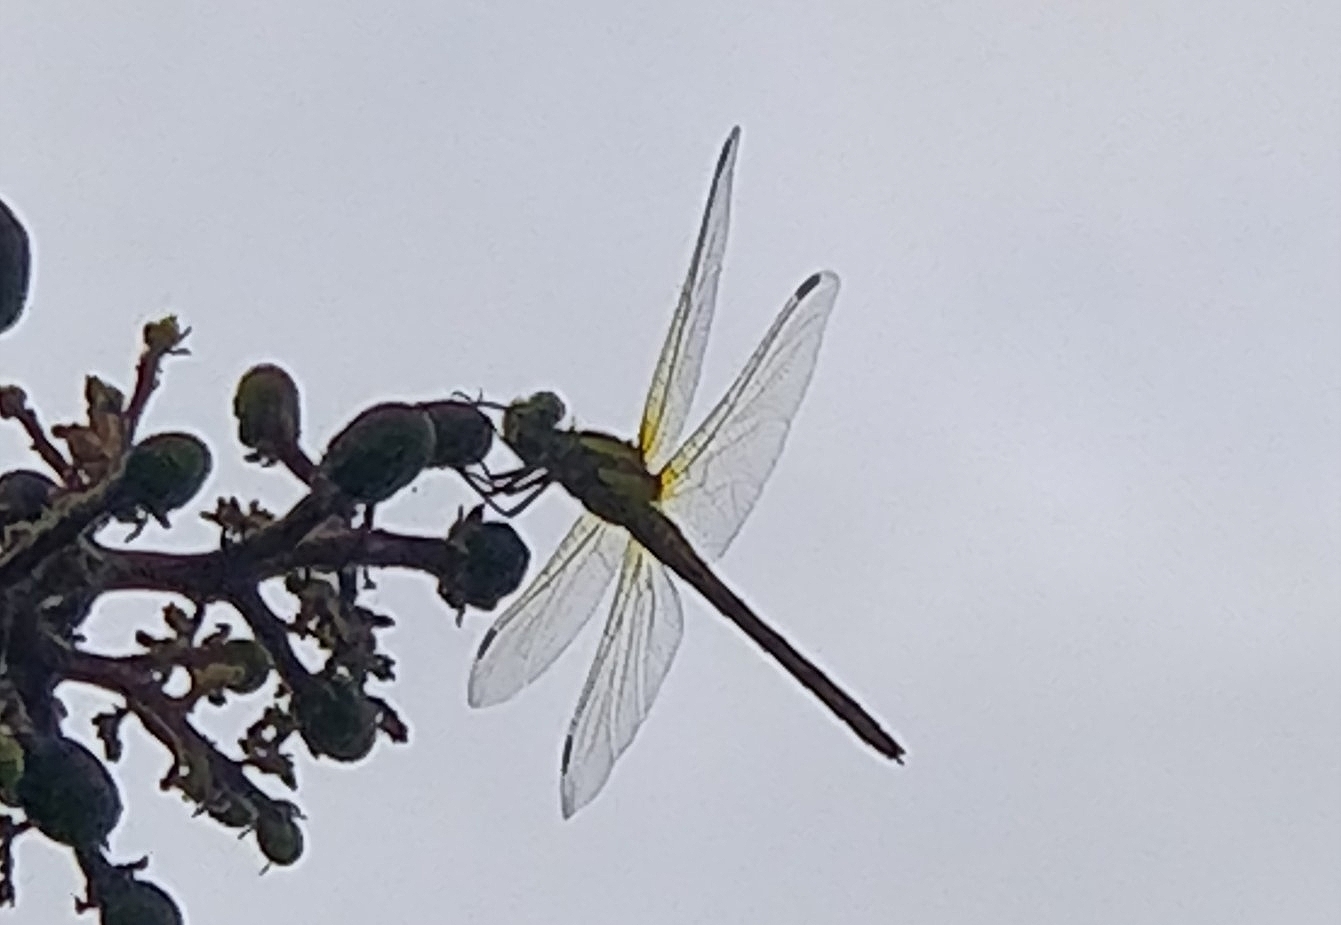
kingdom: Animalia
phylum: Arthropoda
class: Insecta
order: Odonata
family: Libellulidae
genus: Sympetrum
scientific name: Sympetrum nigrifemur
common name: Island darter
